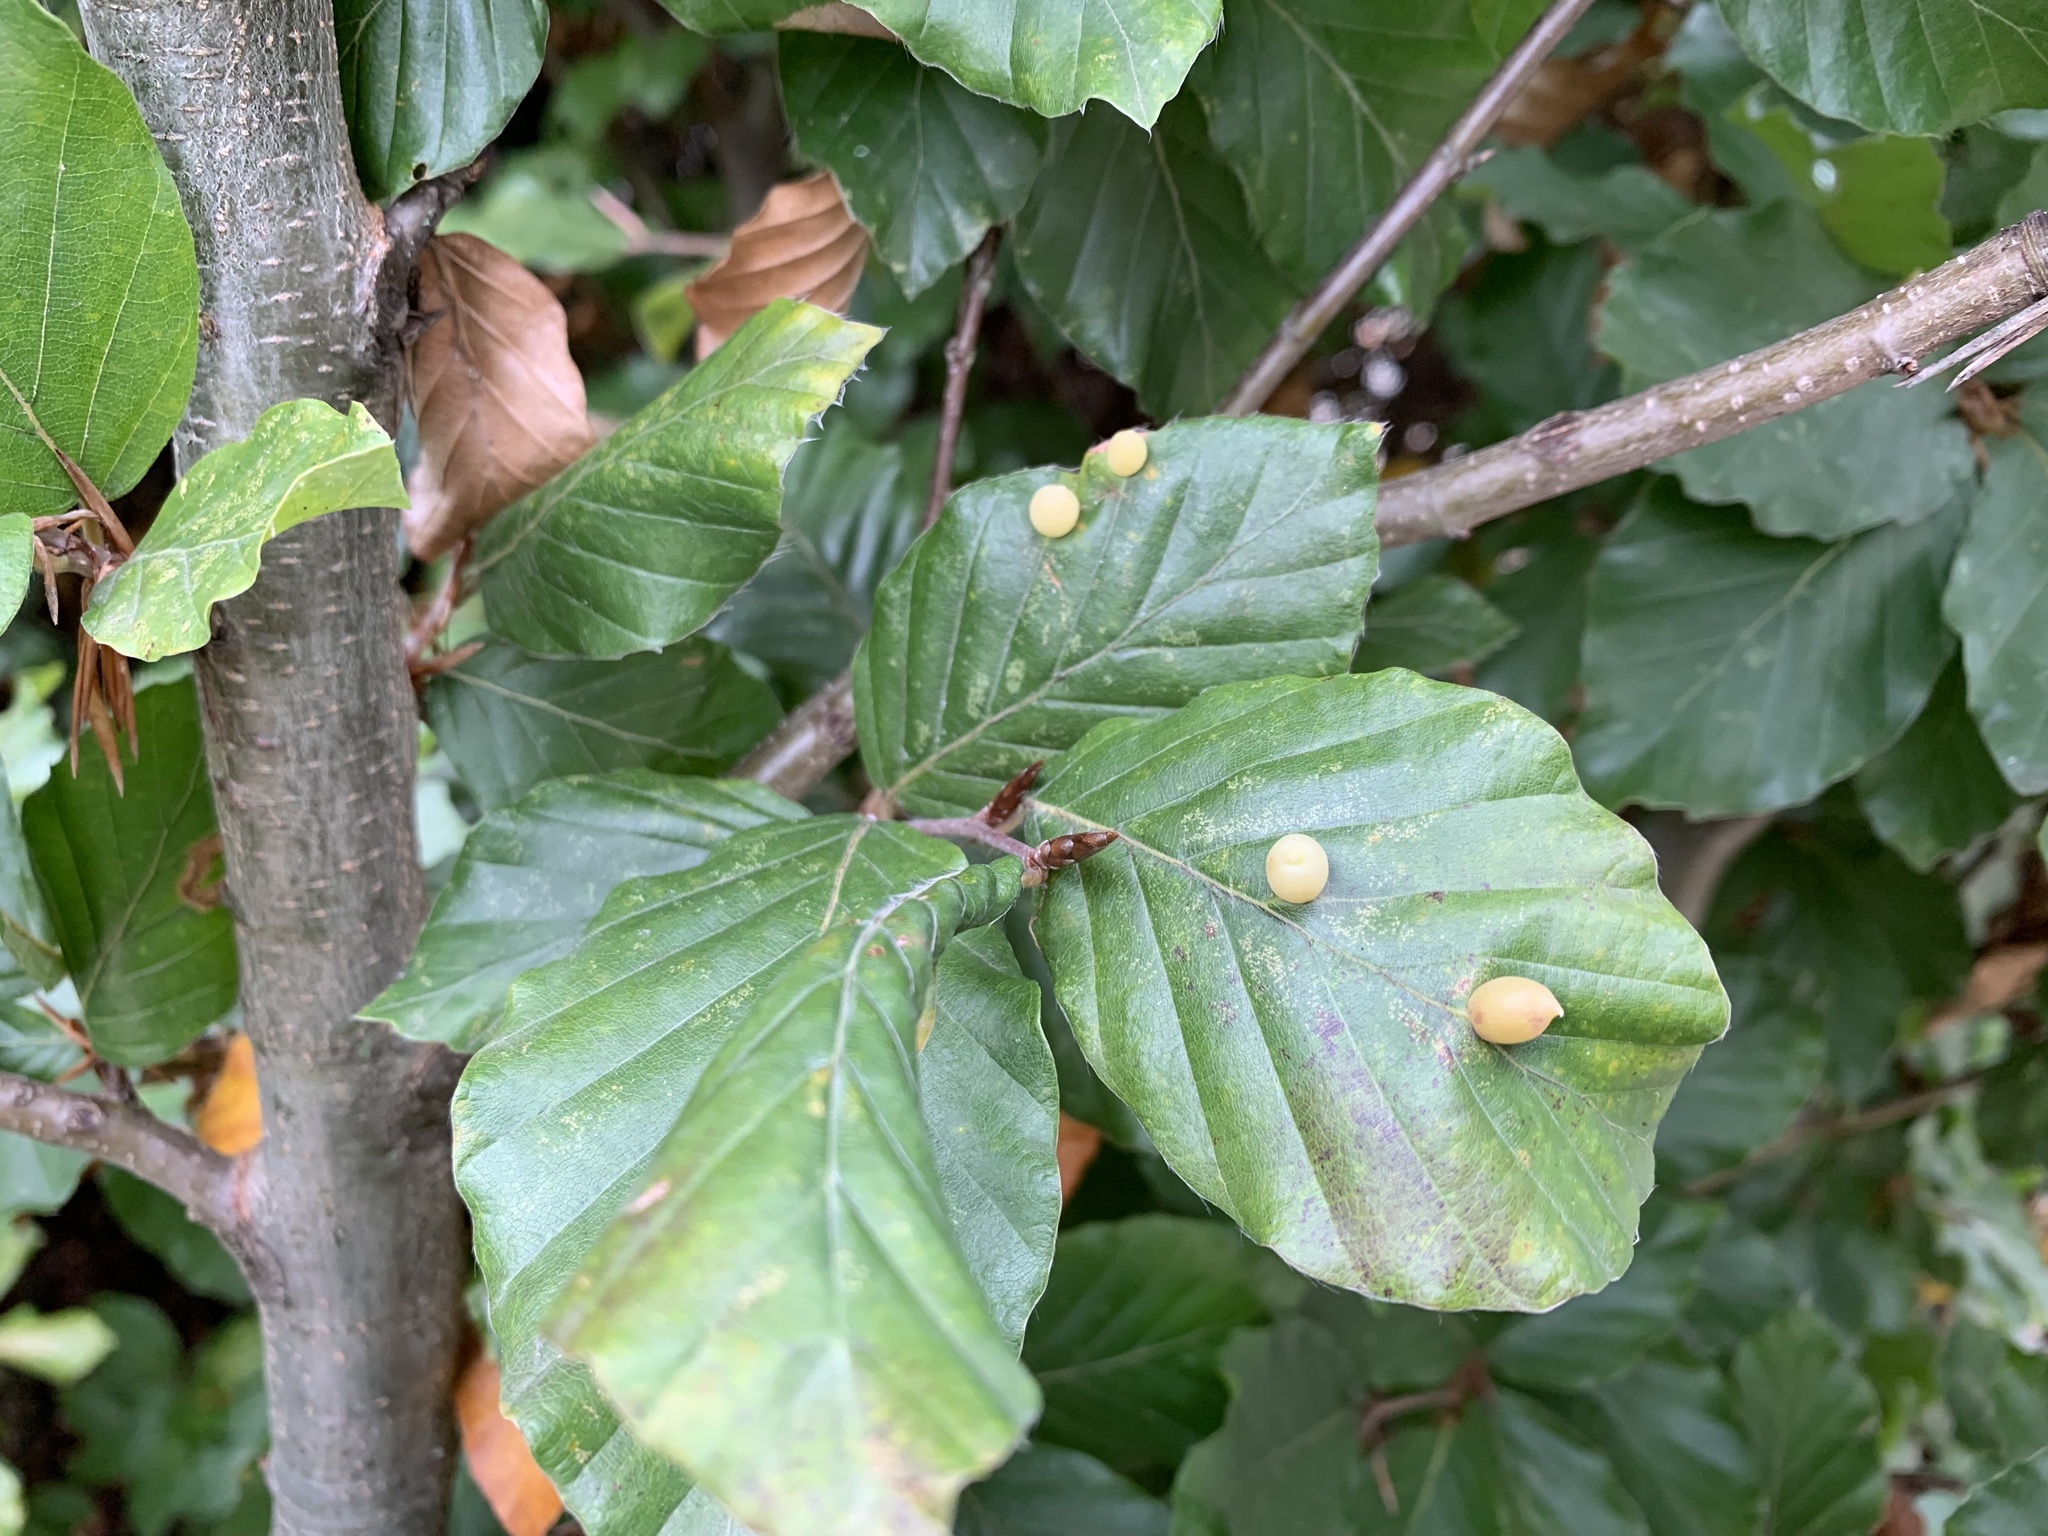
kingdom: Animalia
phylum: Arthropoda
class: Insecta
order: Diptera
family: Cecidomyiidae
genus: Mikiola
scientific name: Mikiola fagi
